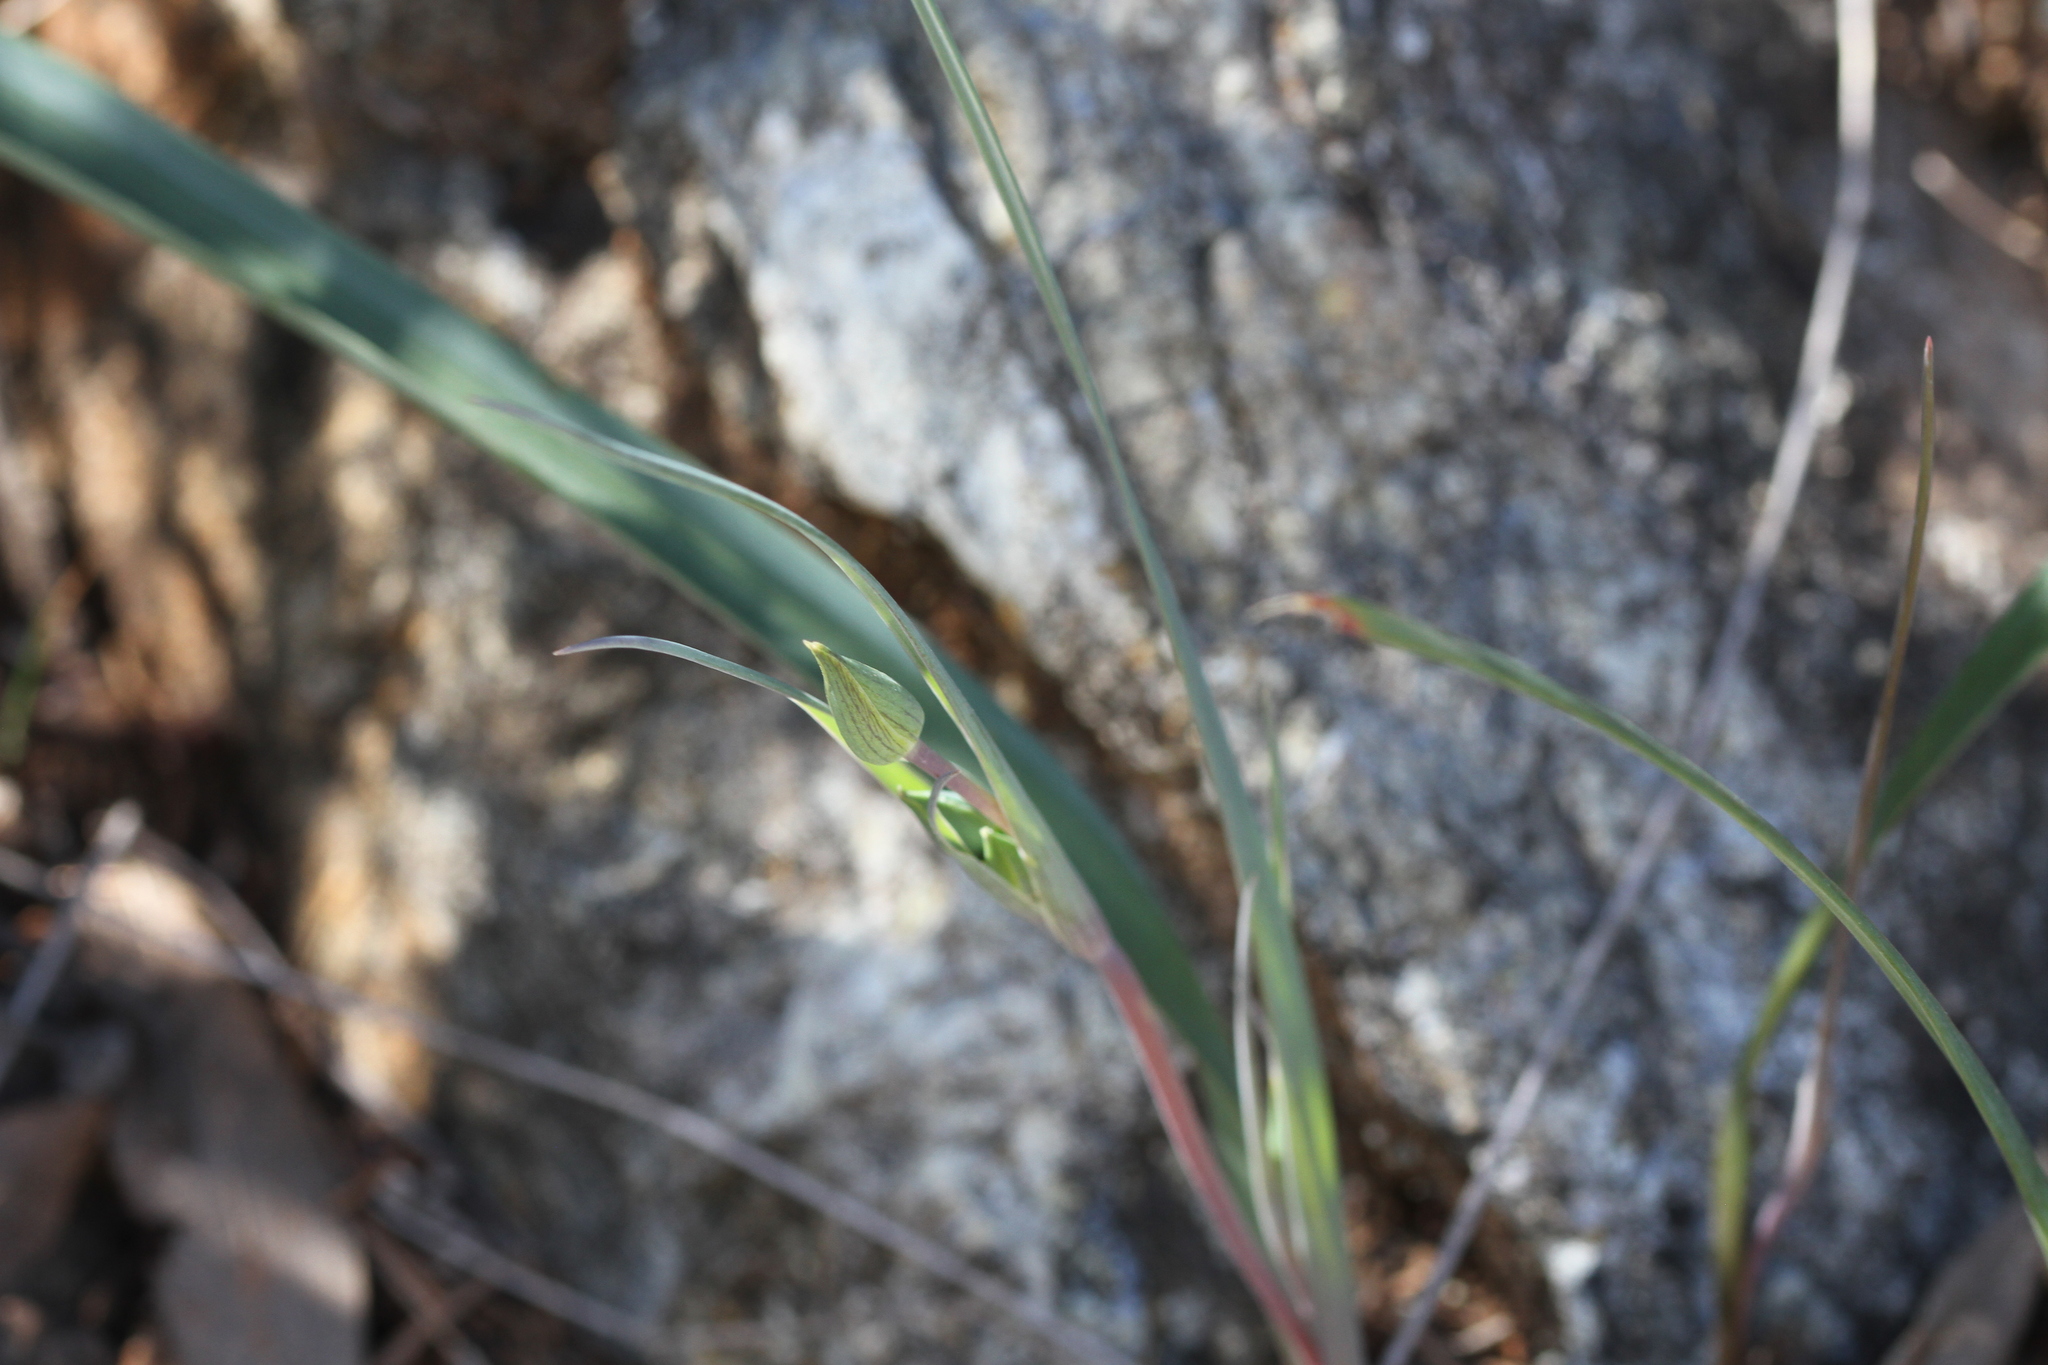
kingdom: Plantae
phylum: Tracheophyta
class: Liliopsida
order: Liliales
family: Liliaceae
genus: Calochortus
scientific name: Calochortus umbellatus
